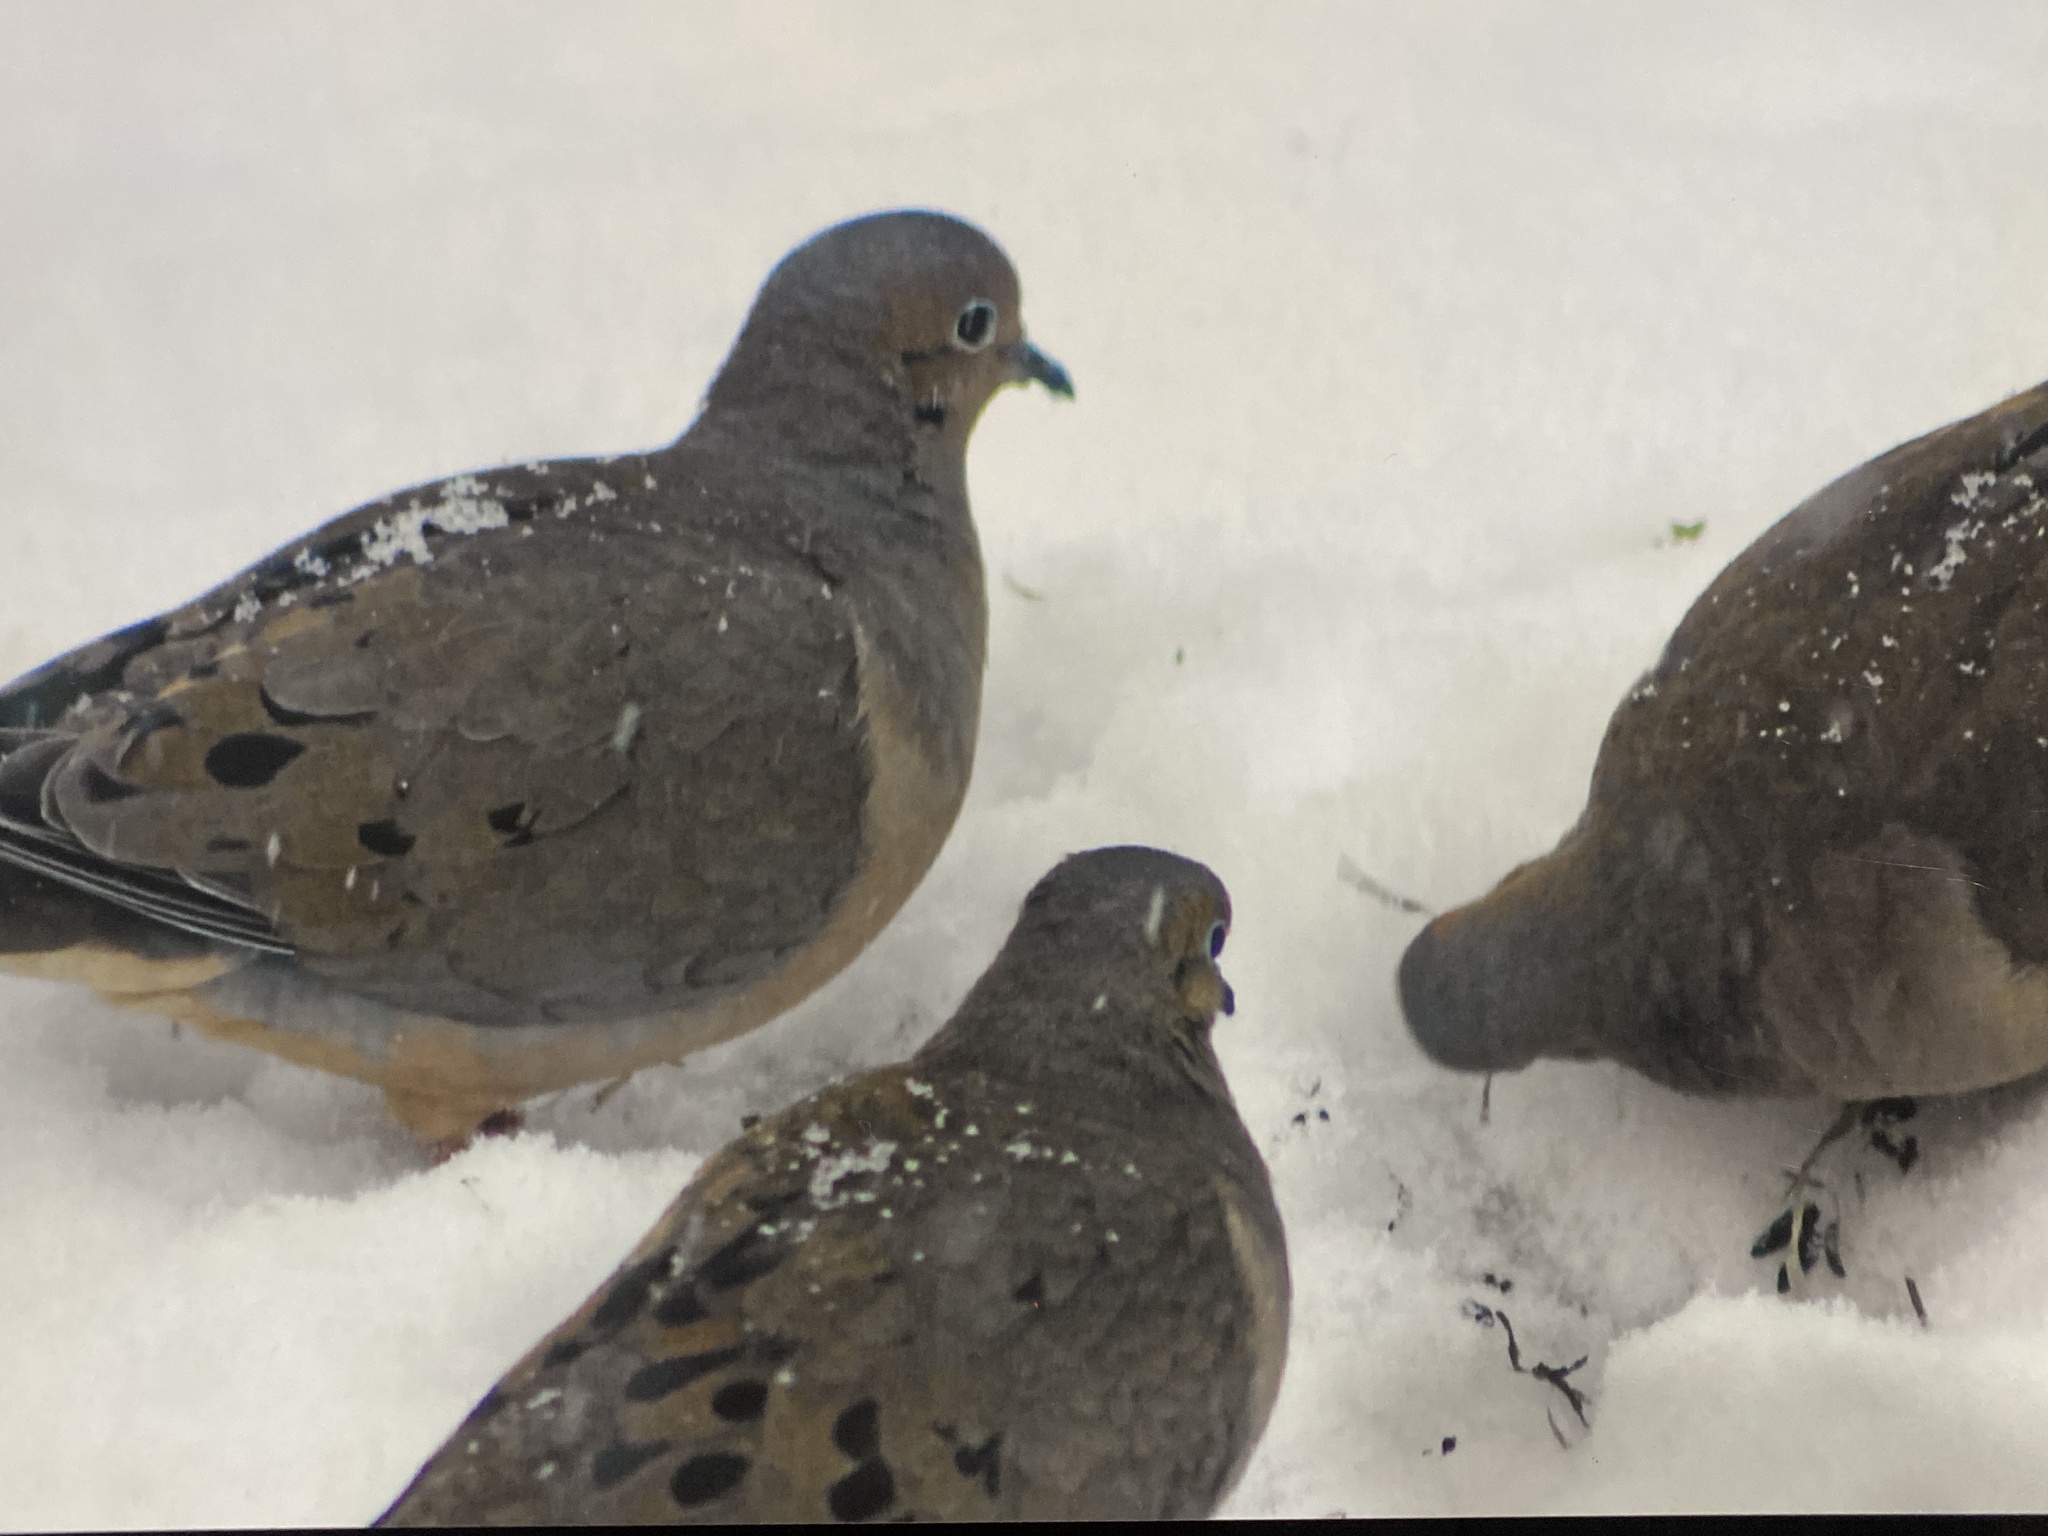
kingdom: Animalia
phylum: Chordata
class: Aves
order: Columbiformes
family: Columbidae
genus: Zenaida
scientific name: Zenaida macroura
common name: Mourning dove
